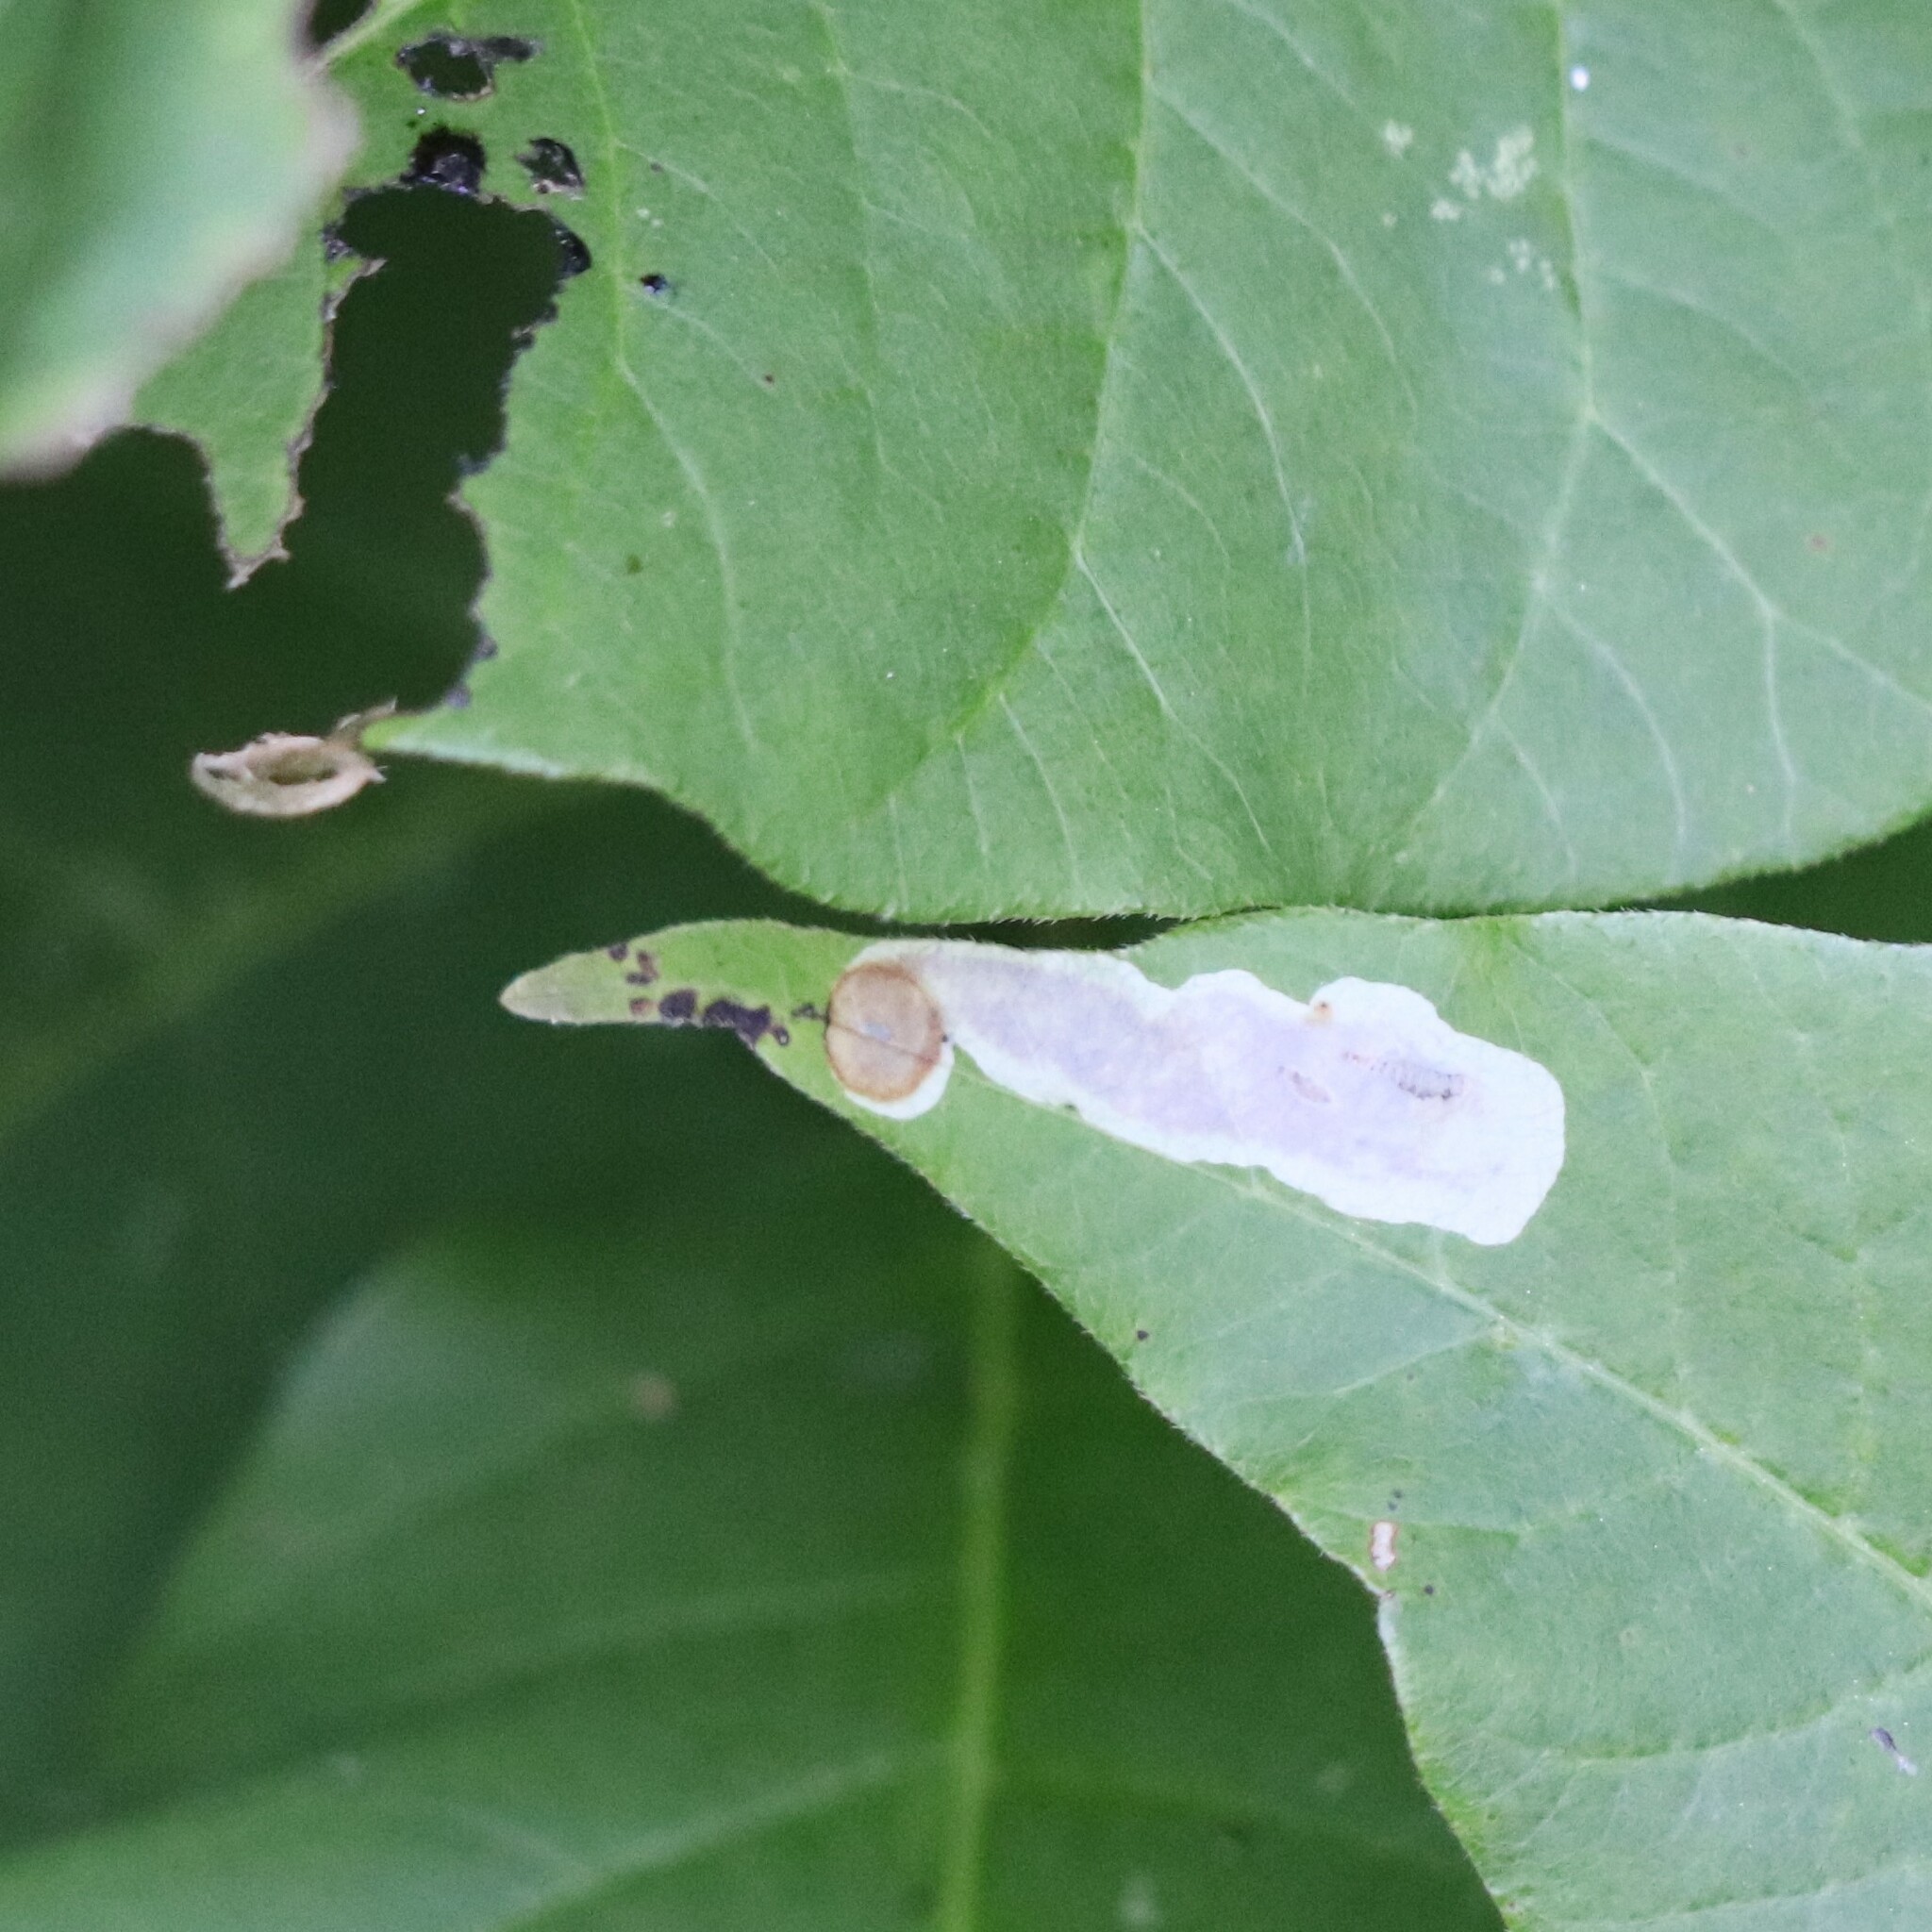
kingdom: Animalia
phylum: Arthropoda
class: Insecta
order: Lepidoptera
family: Gracillariidae
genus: Cameraria
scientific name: Cameraria guttifinitella
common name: Poison ivy leaf-miner moth
